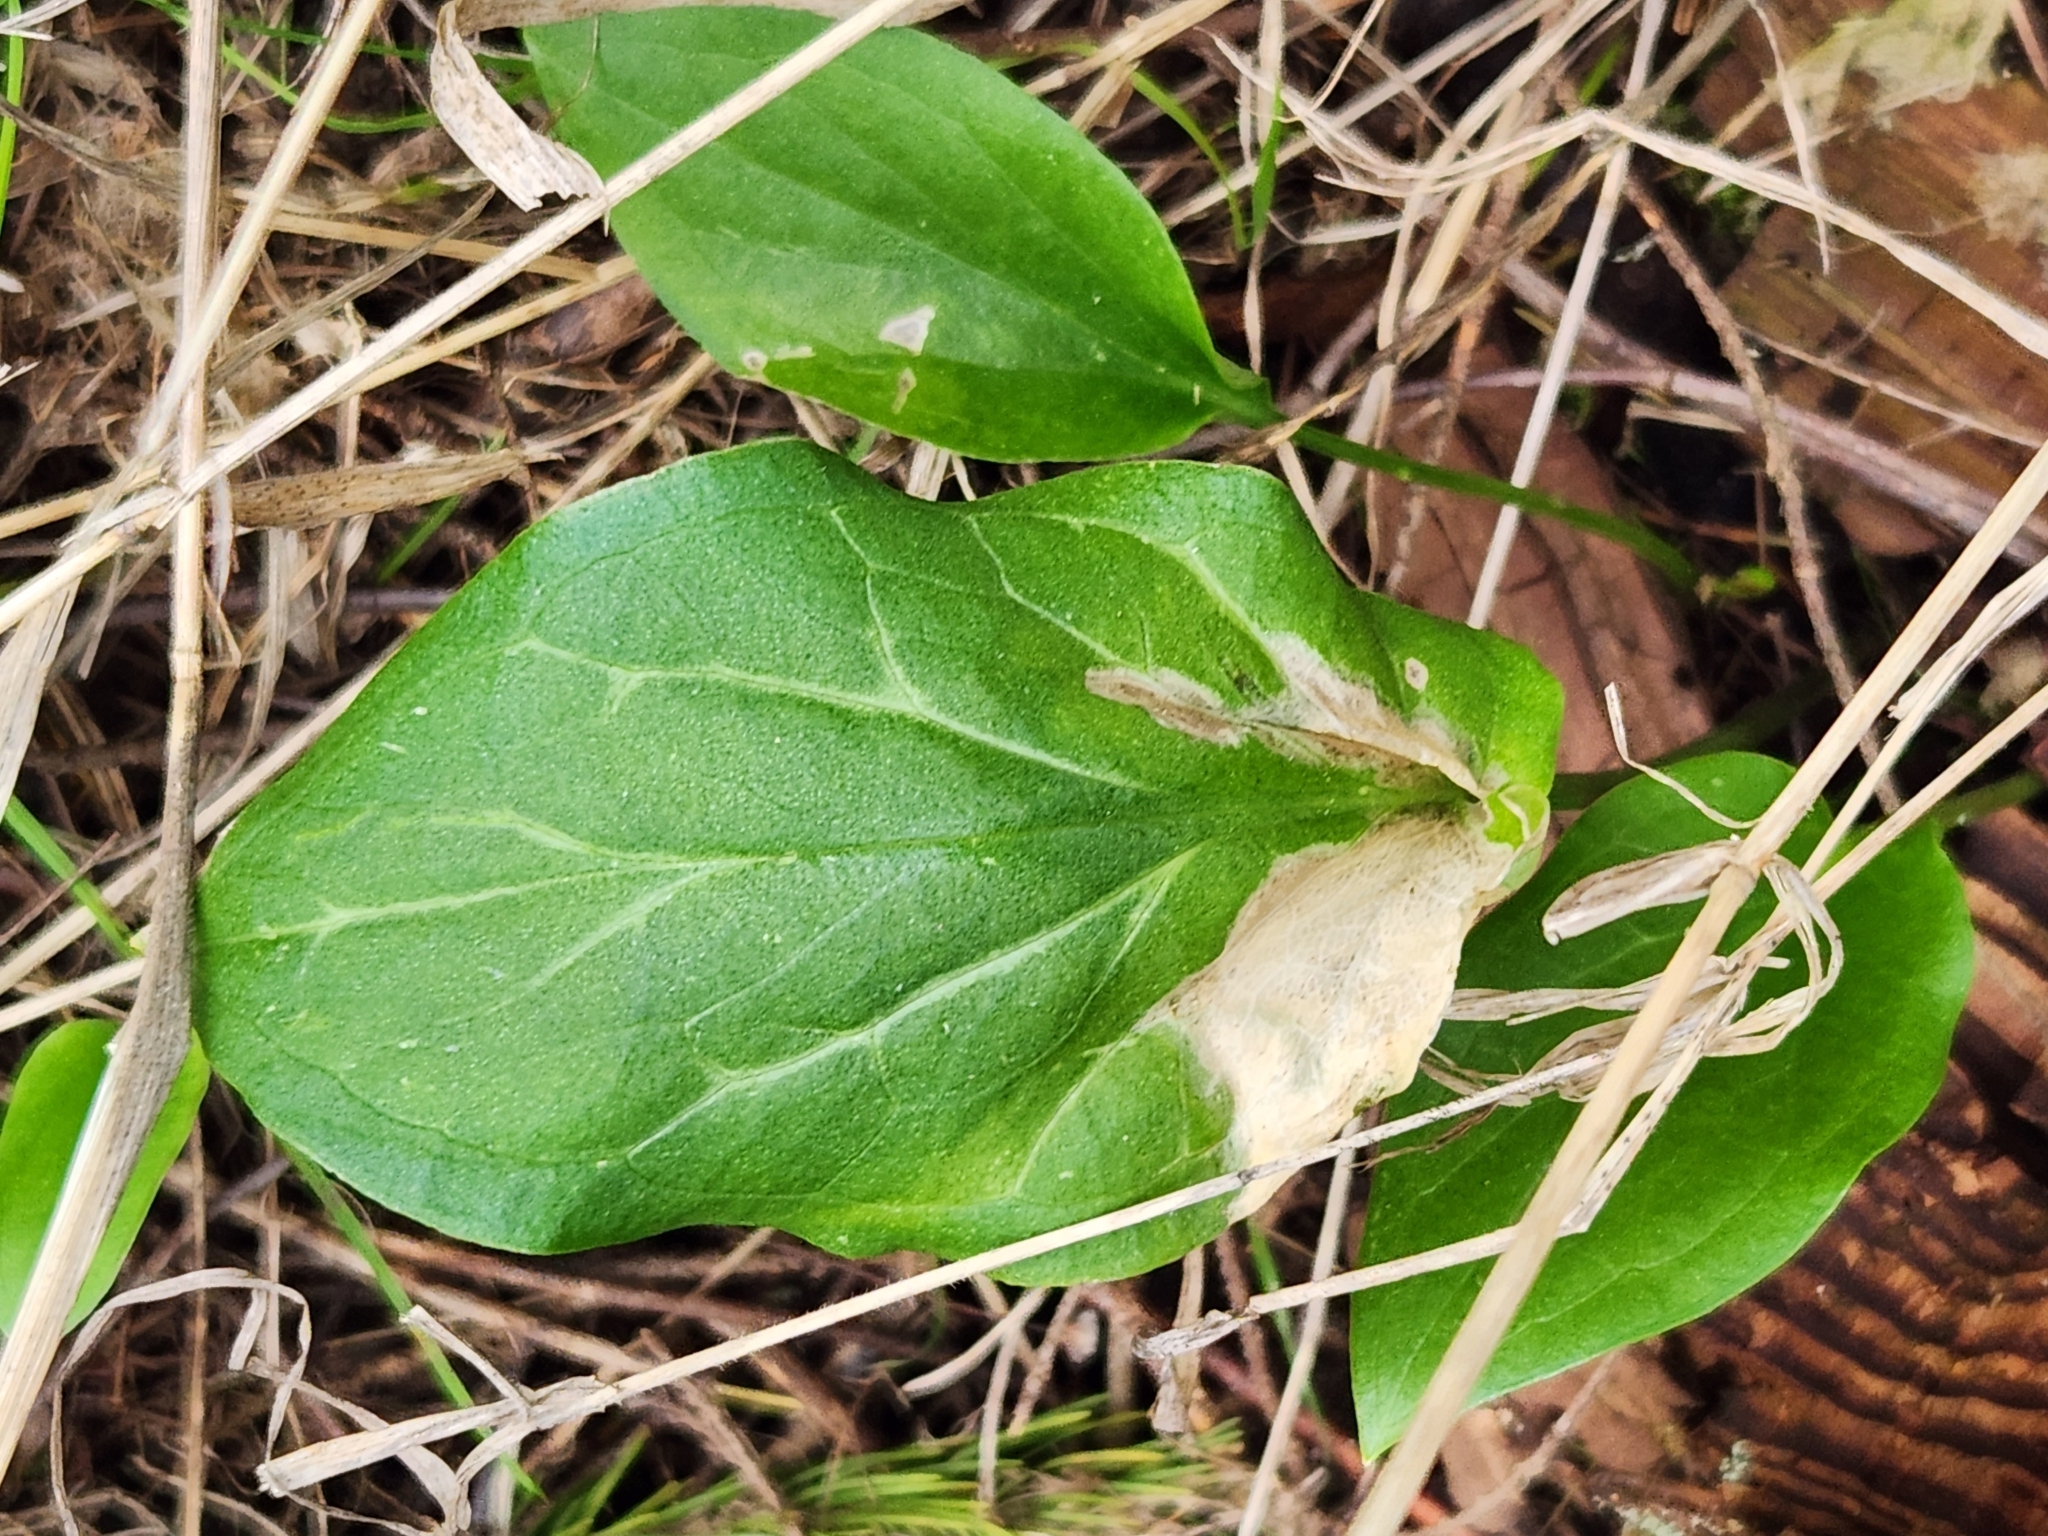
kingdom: Plantae
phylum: Tracheophyta
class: Liliopsida
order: Alismatales
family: Araceae
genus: Arum
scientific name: Arum italicum
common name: Italian lords-and-ladies
